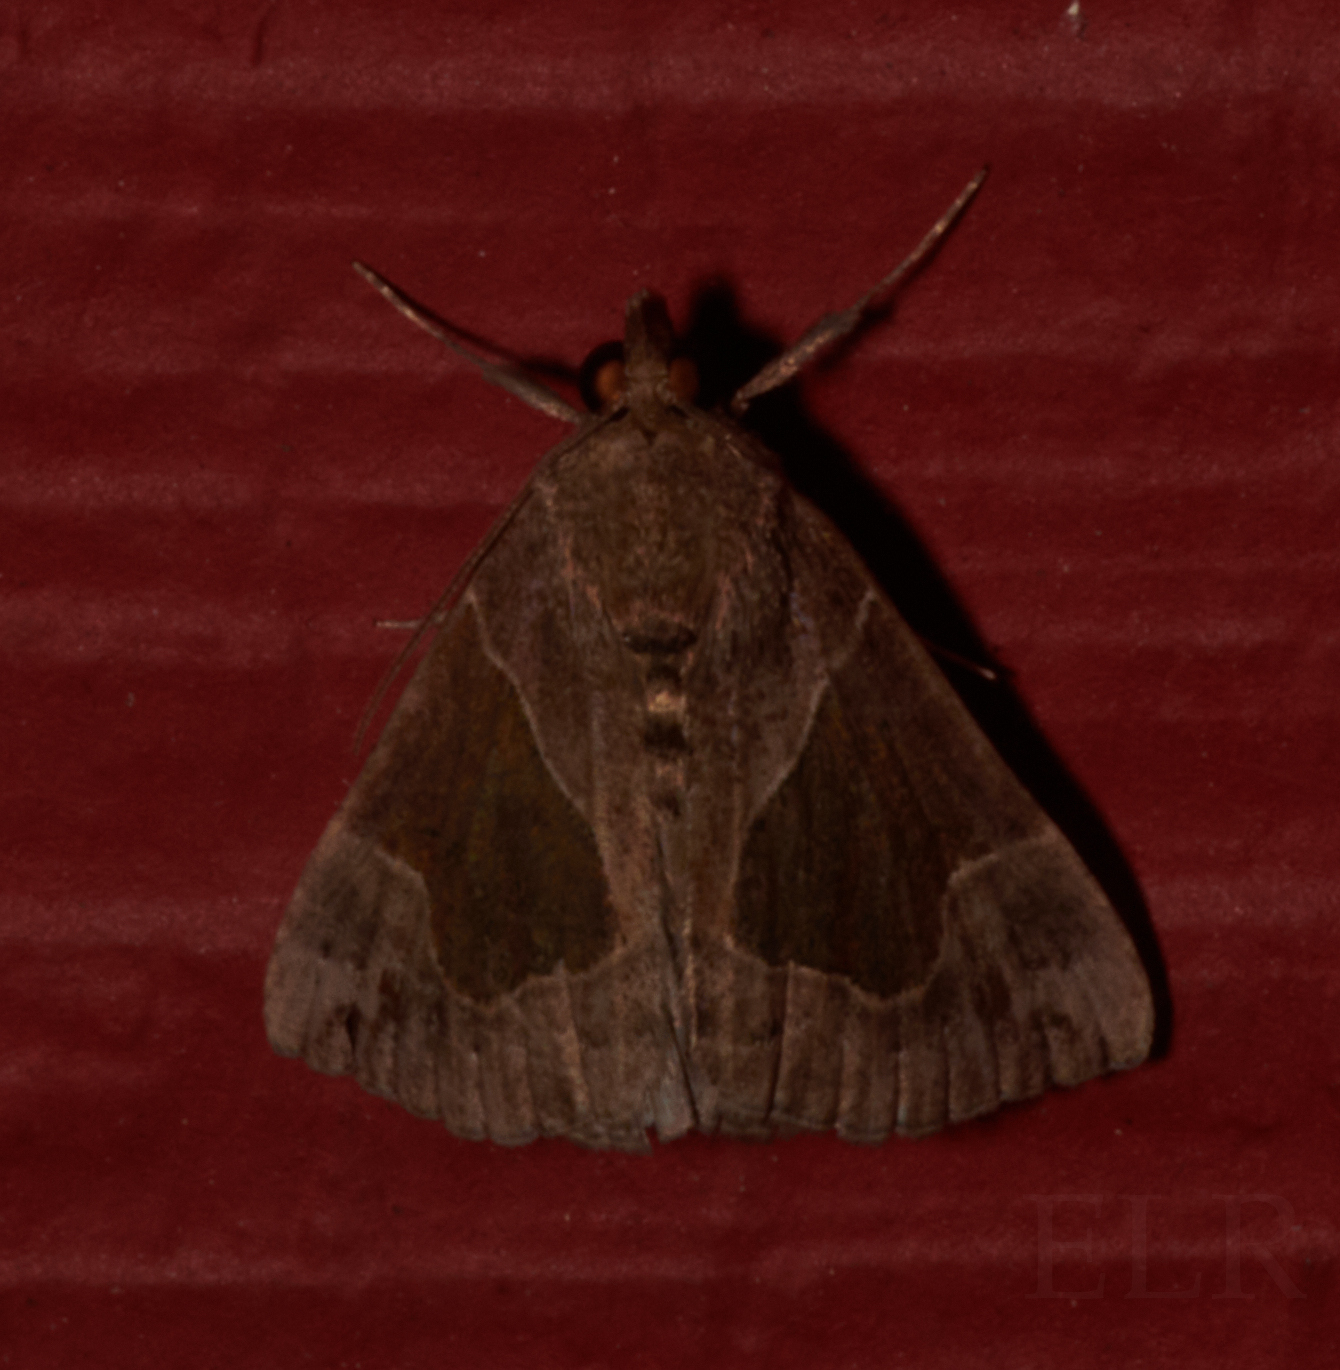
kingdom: Animalia
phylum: Arthropoda
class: Insecta
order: Lepidoptera
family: Erebidae
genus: Hypena
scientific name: Hypena manalis
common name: Flowing-line bomolocha moth
